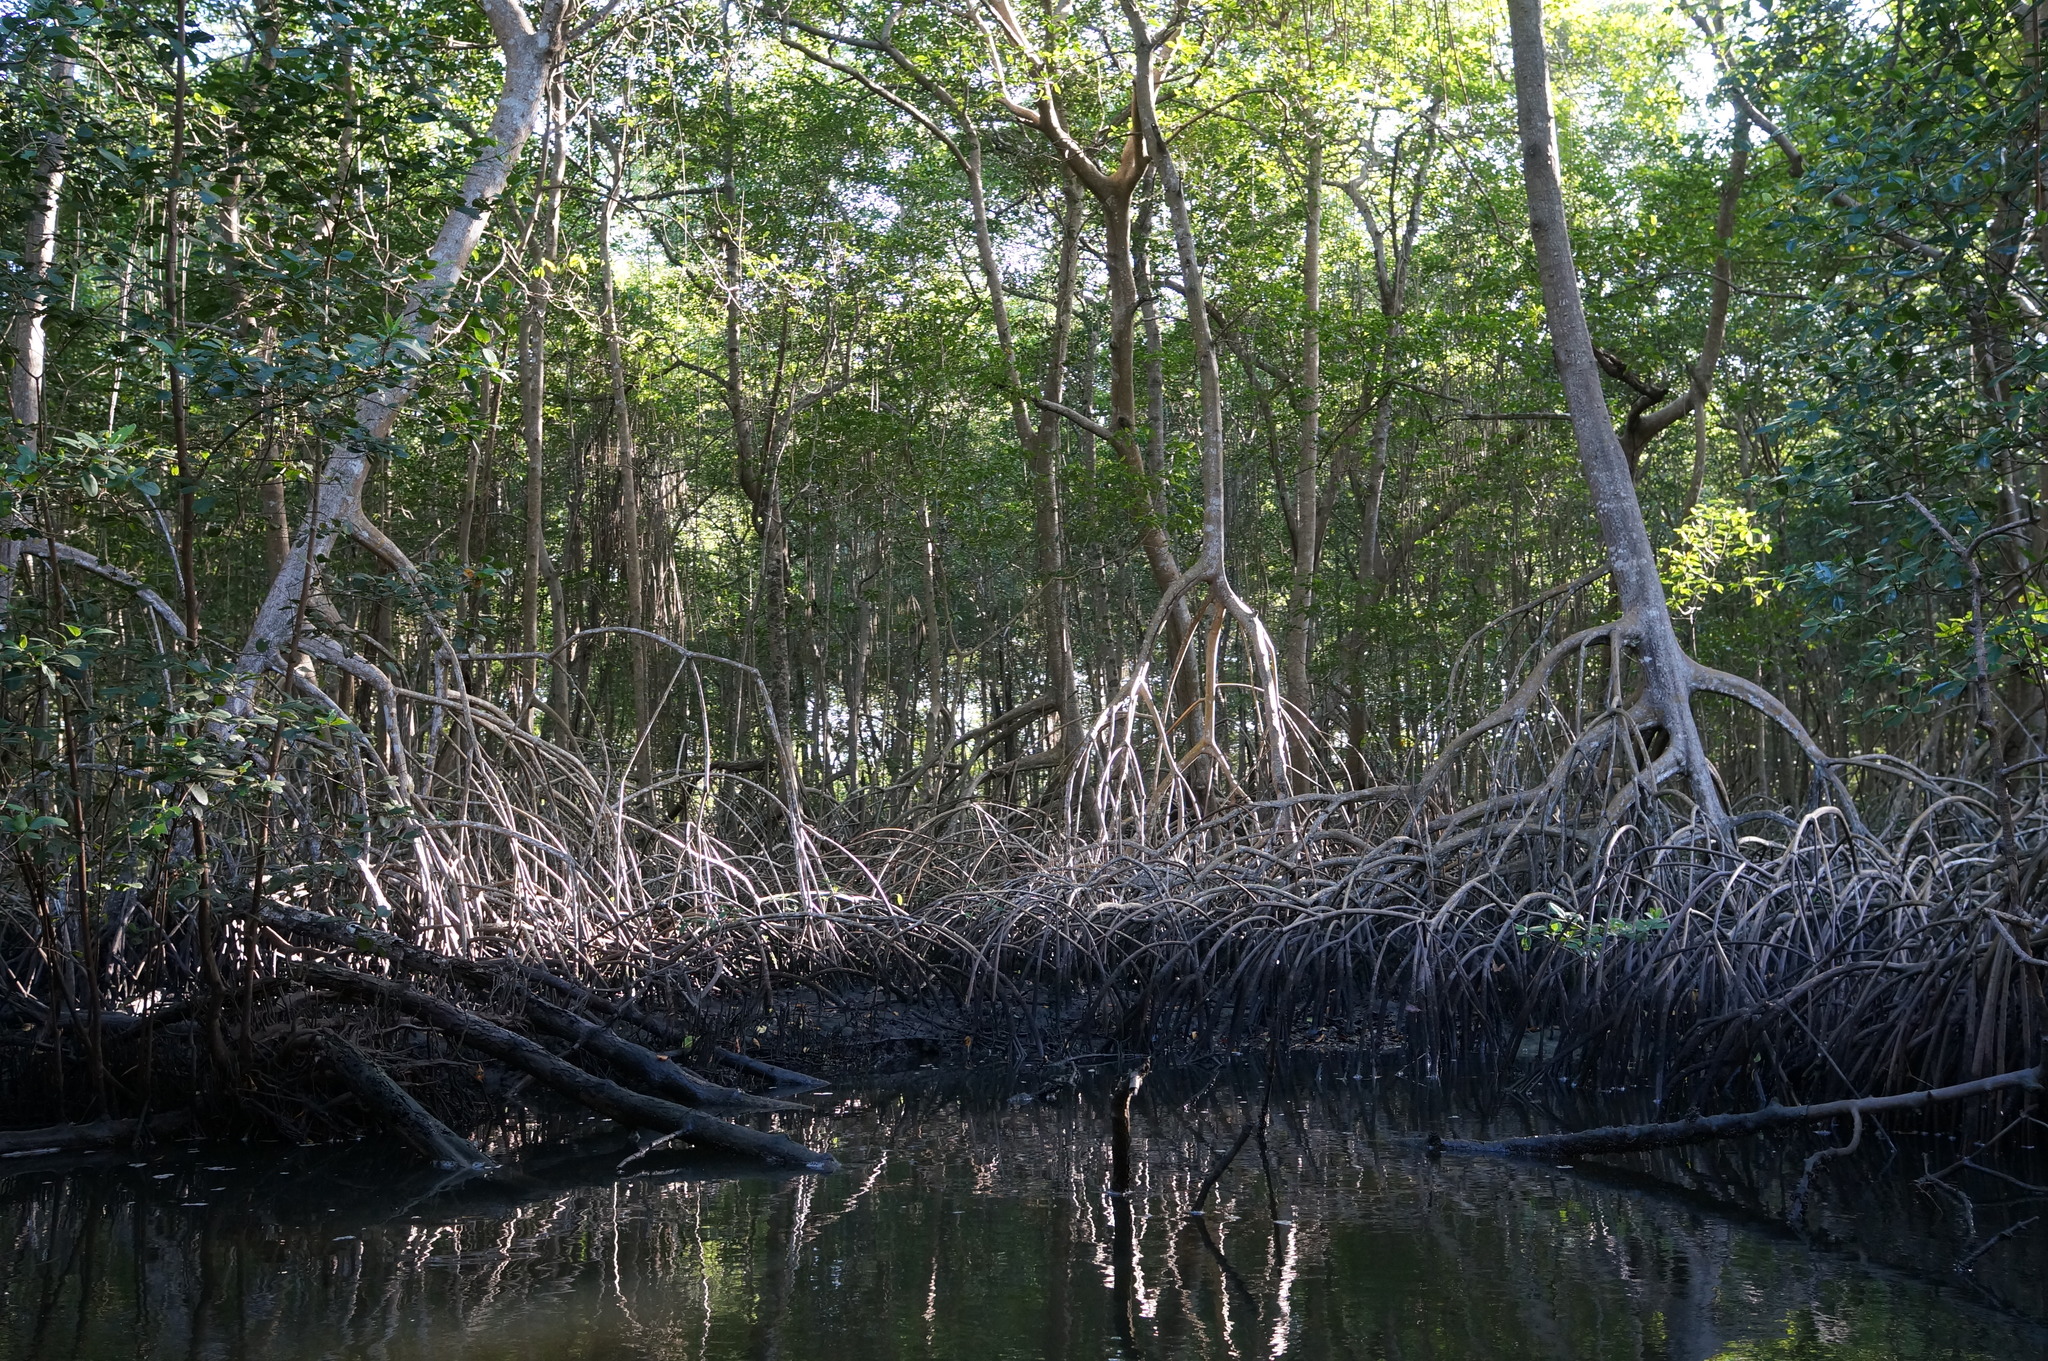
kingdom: Plantae
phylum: Tracheophyta
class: Magnoliopsida
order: Malpighiales
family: Rhizophoraceae
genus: Rhizophora
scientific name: Rhizophora mangle
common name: Red mangrove
